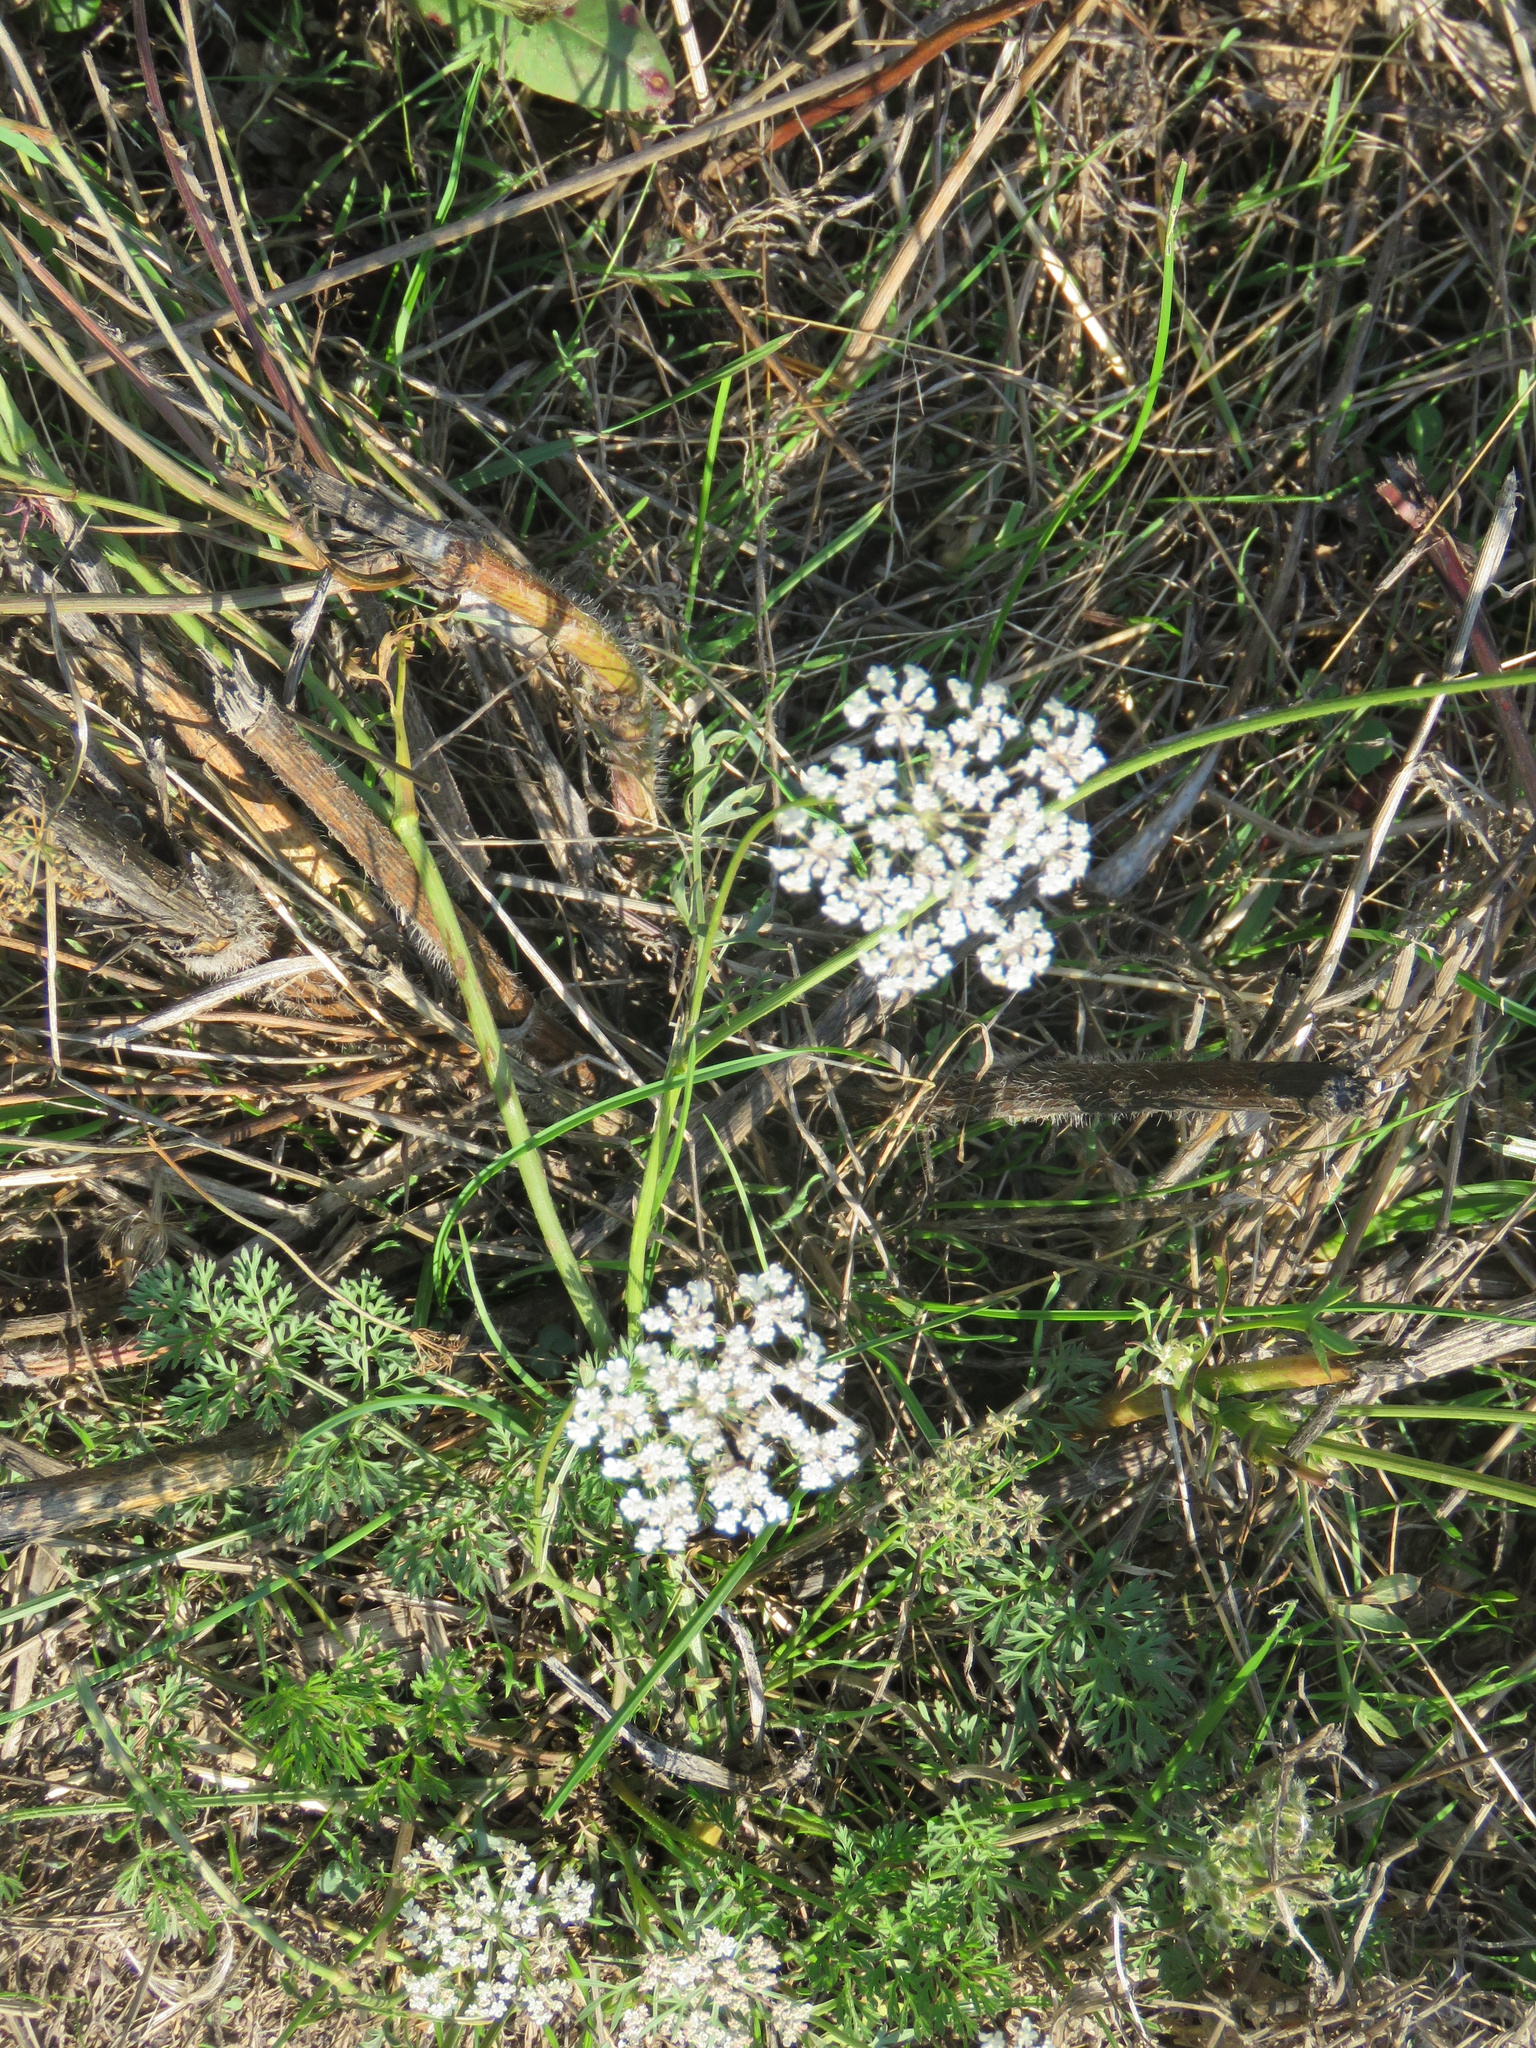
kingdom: Plantae
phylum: Tracheophyta
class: Magnoliopsida
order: Apiales
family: Apiaceae
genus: Daucus
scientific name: Daucus carota
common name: Wild carrot
